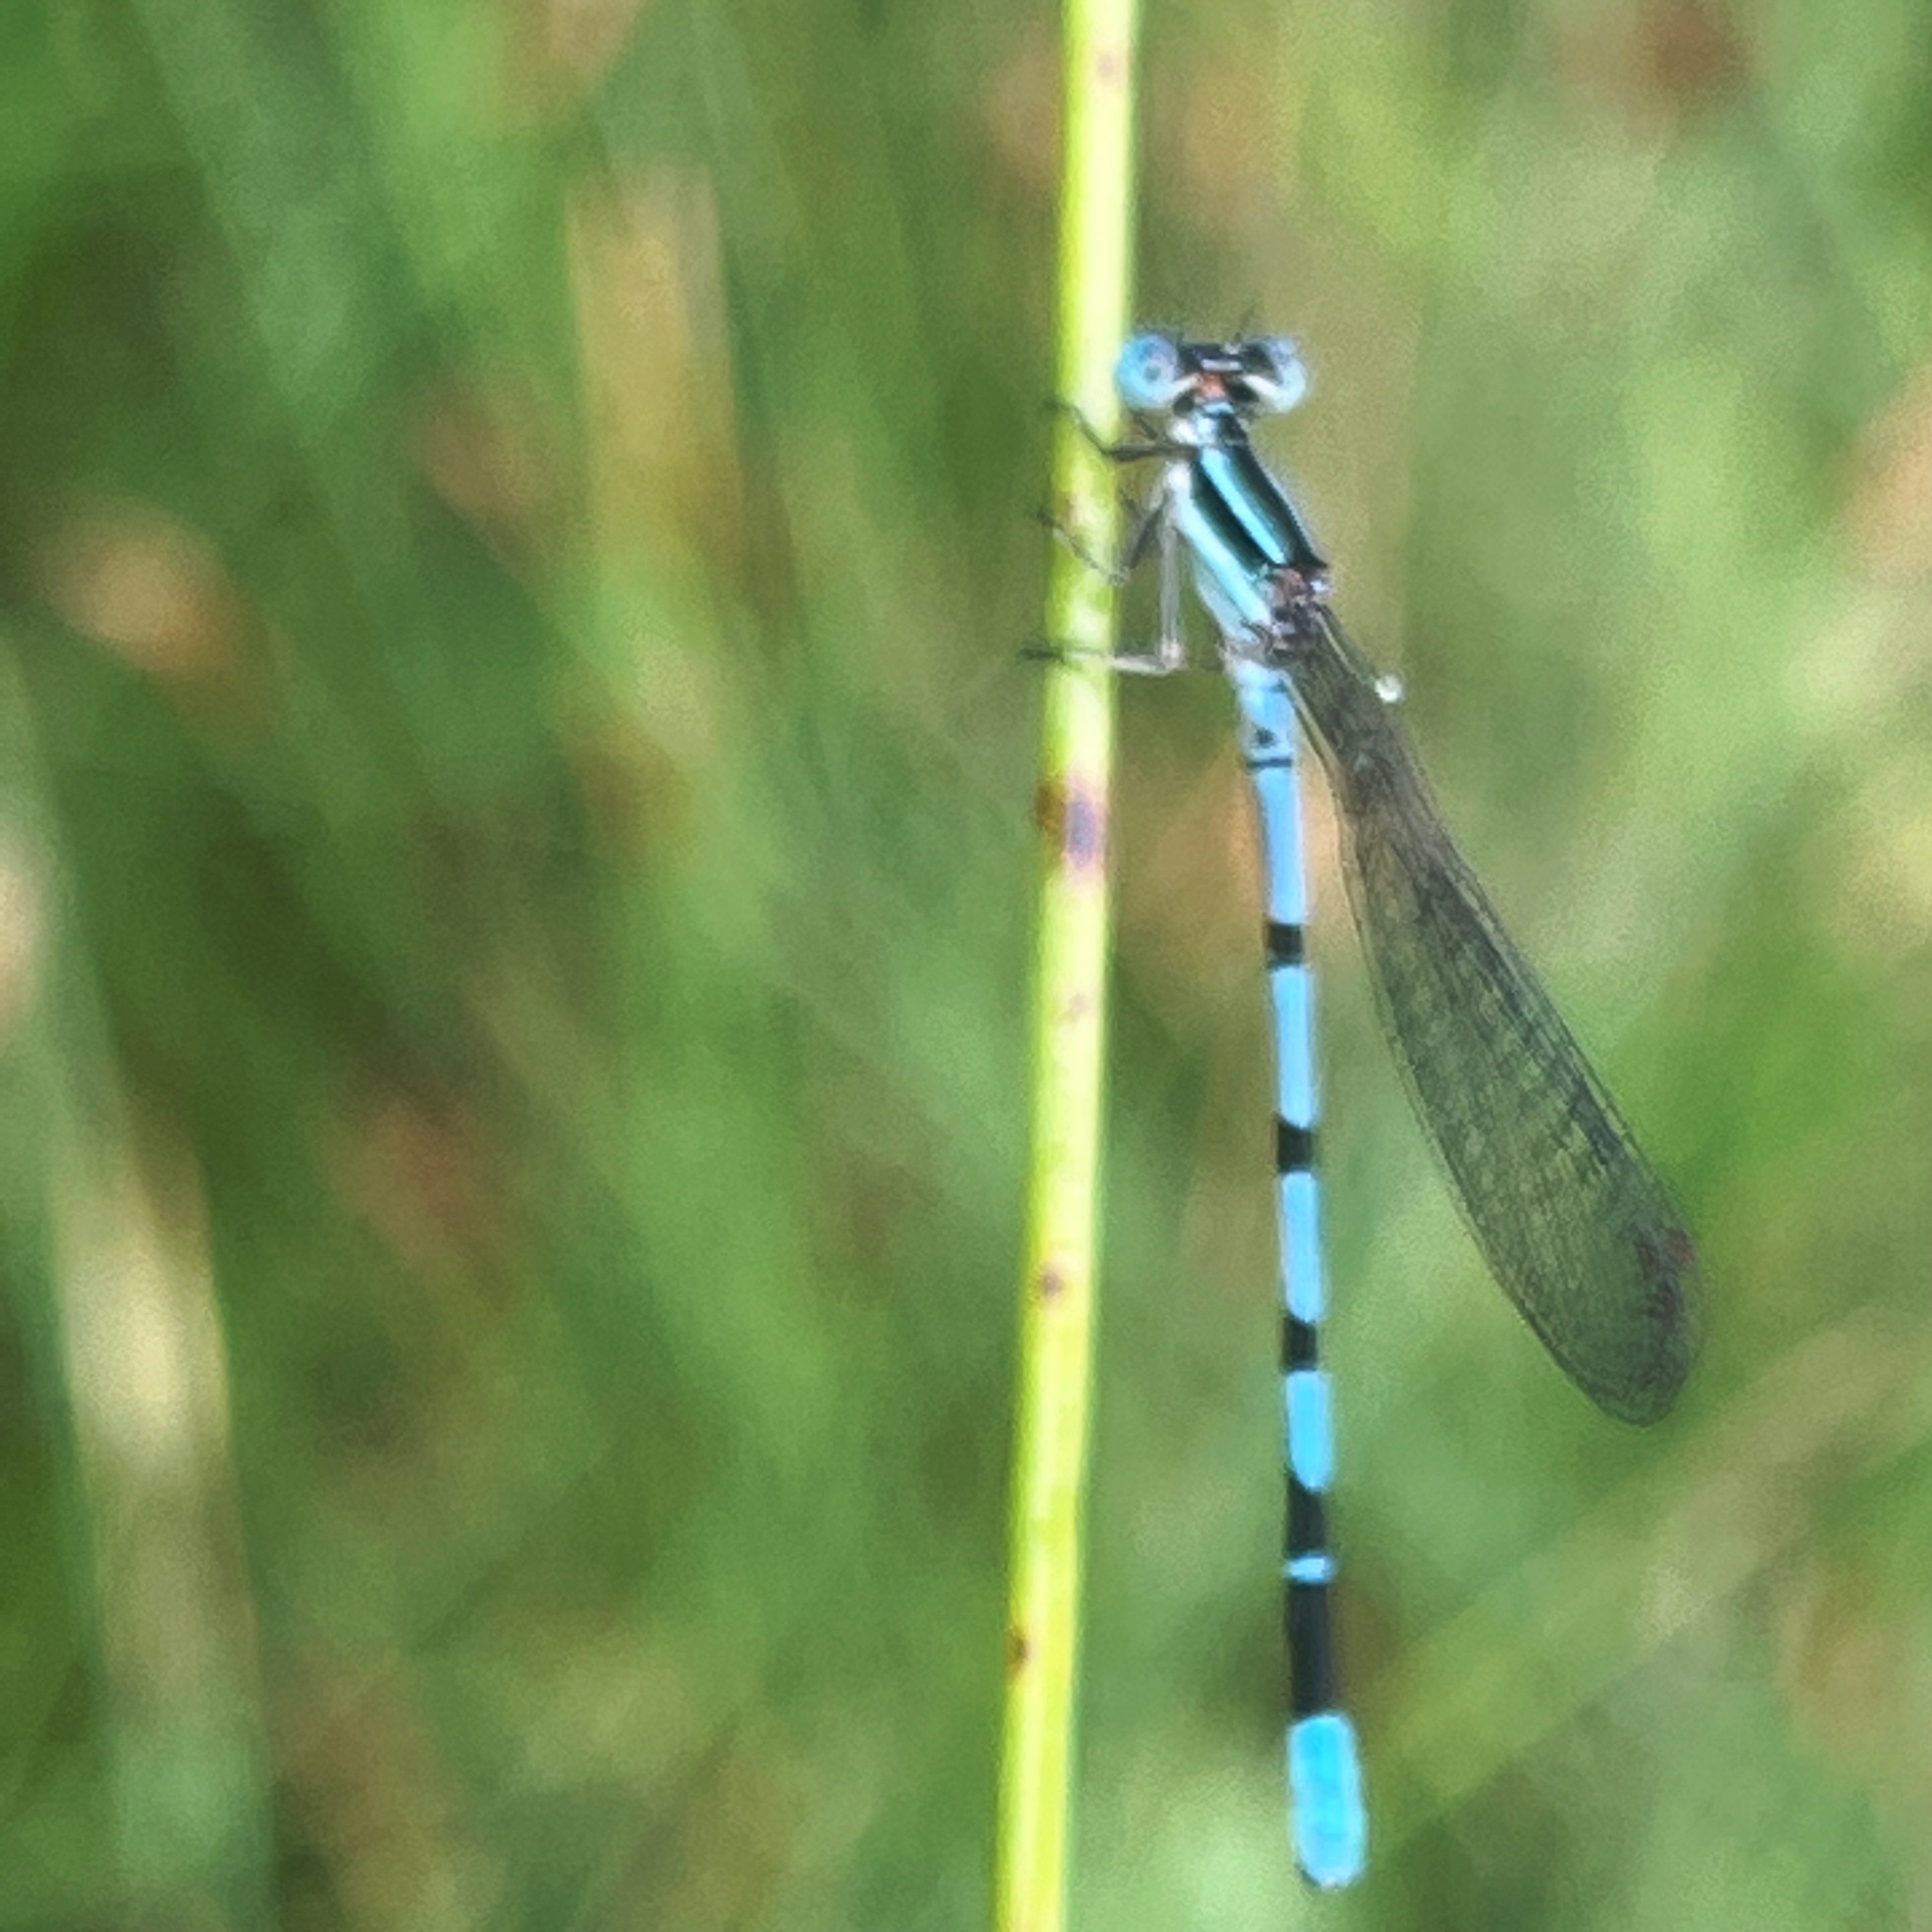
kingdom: Animalia
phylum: Arthropoda
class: Insecta
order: Odonata
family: Coenagrionidae
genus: Argia
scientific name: Argia bipunctulata
